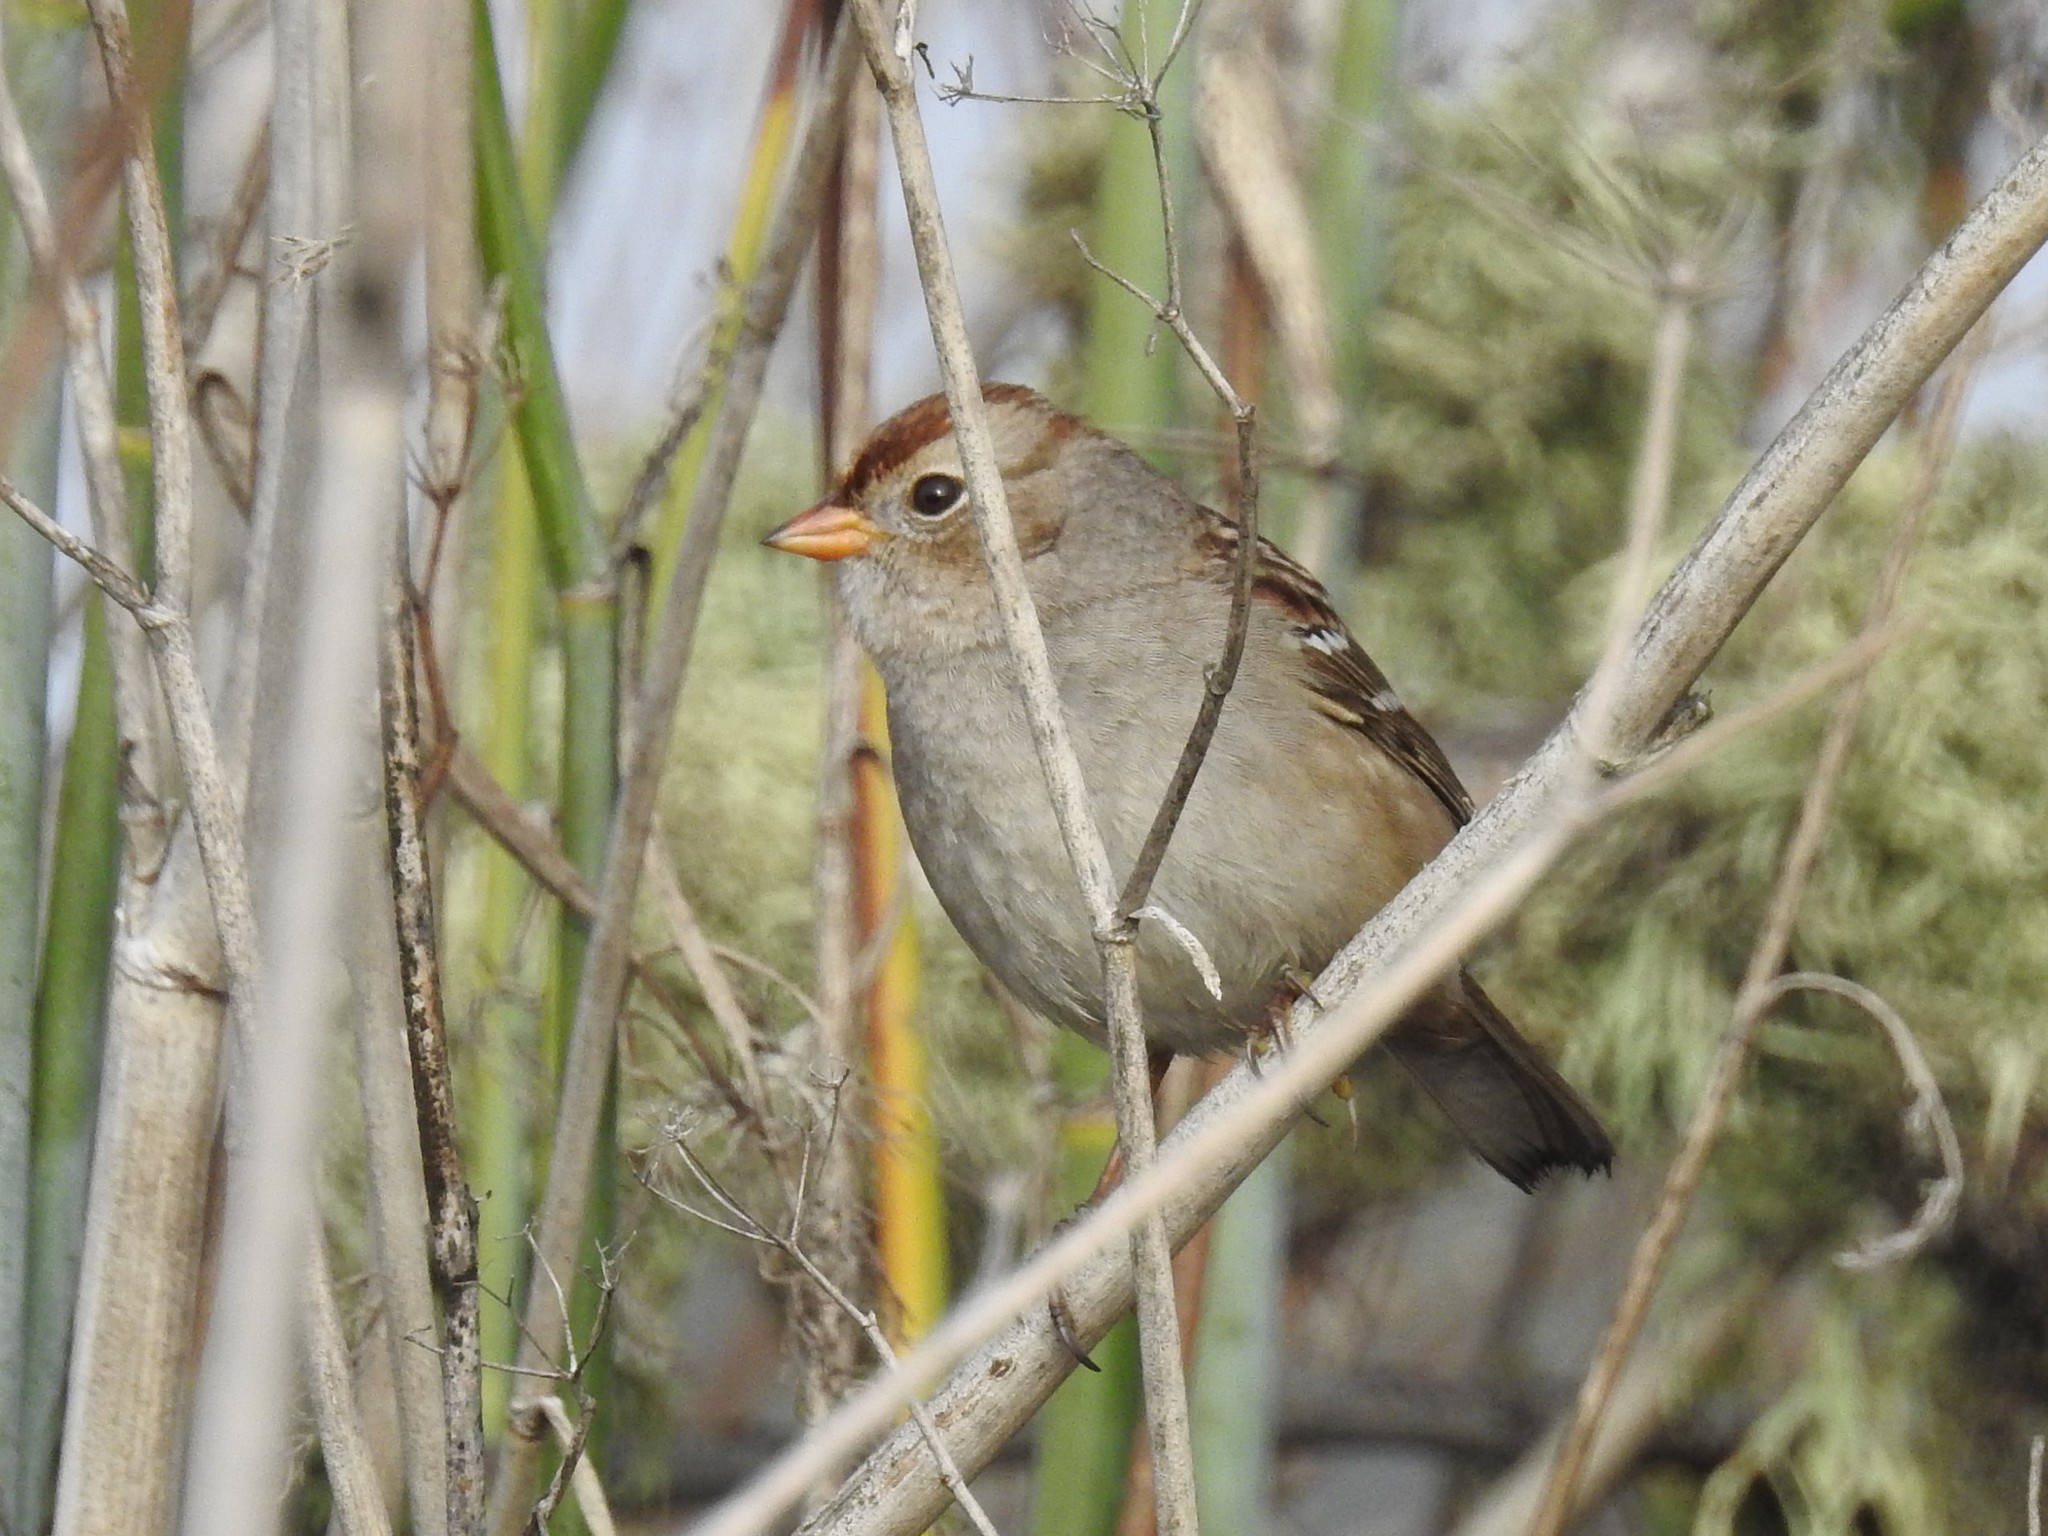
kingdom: Animalia
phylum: Chordata
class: Aves
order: Passeriformes
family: Passerellidae
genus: Zonotrichia
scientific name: Zonotrichia leucophrys
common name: White-crowned sparrow
